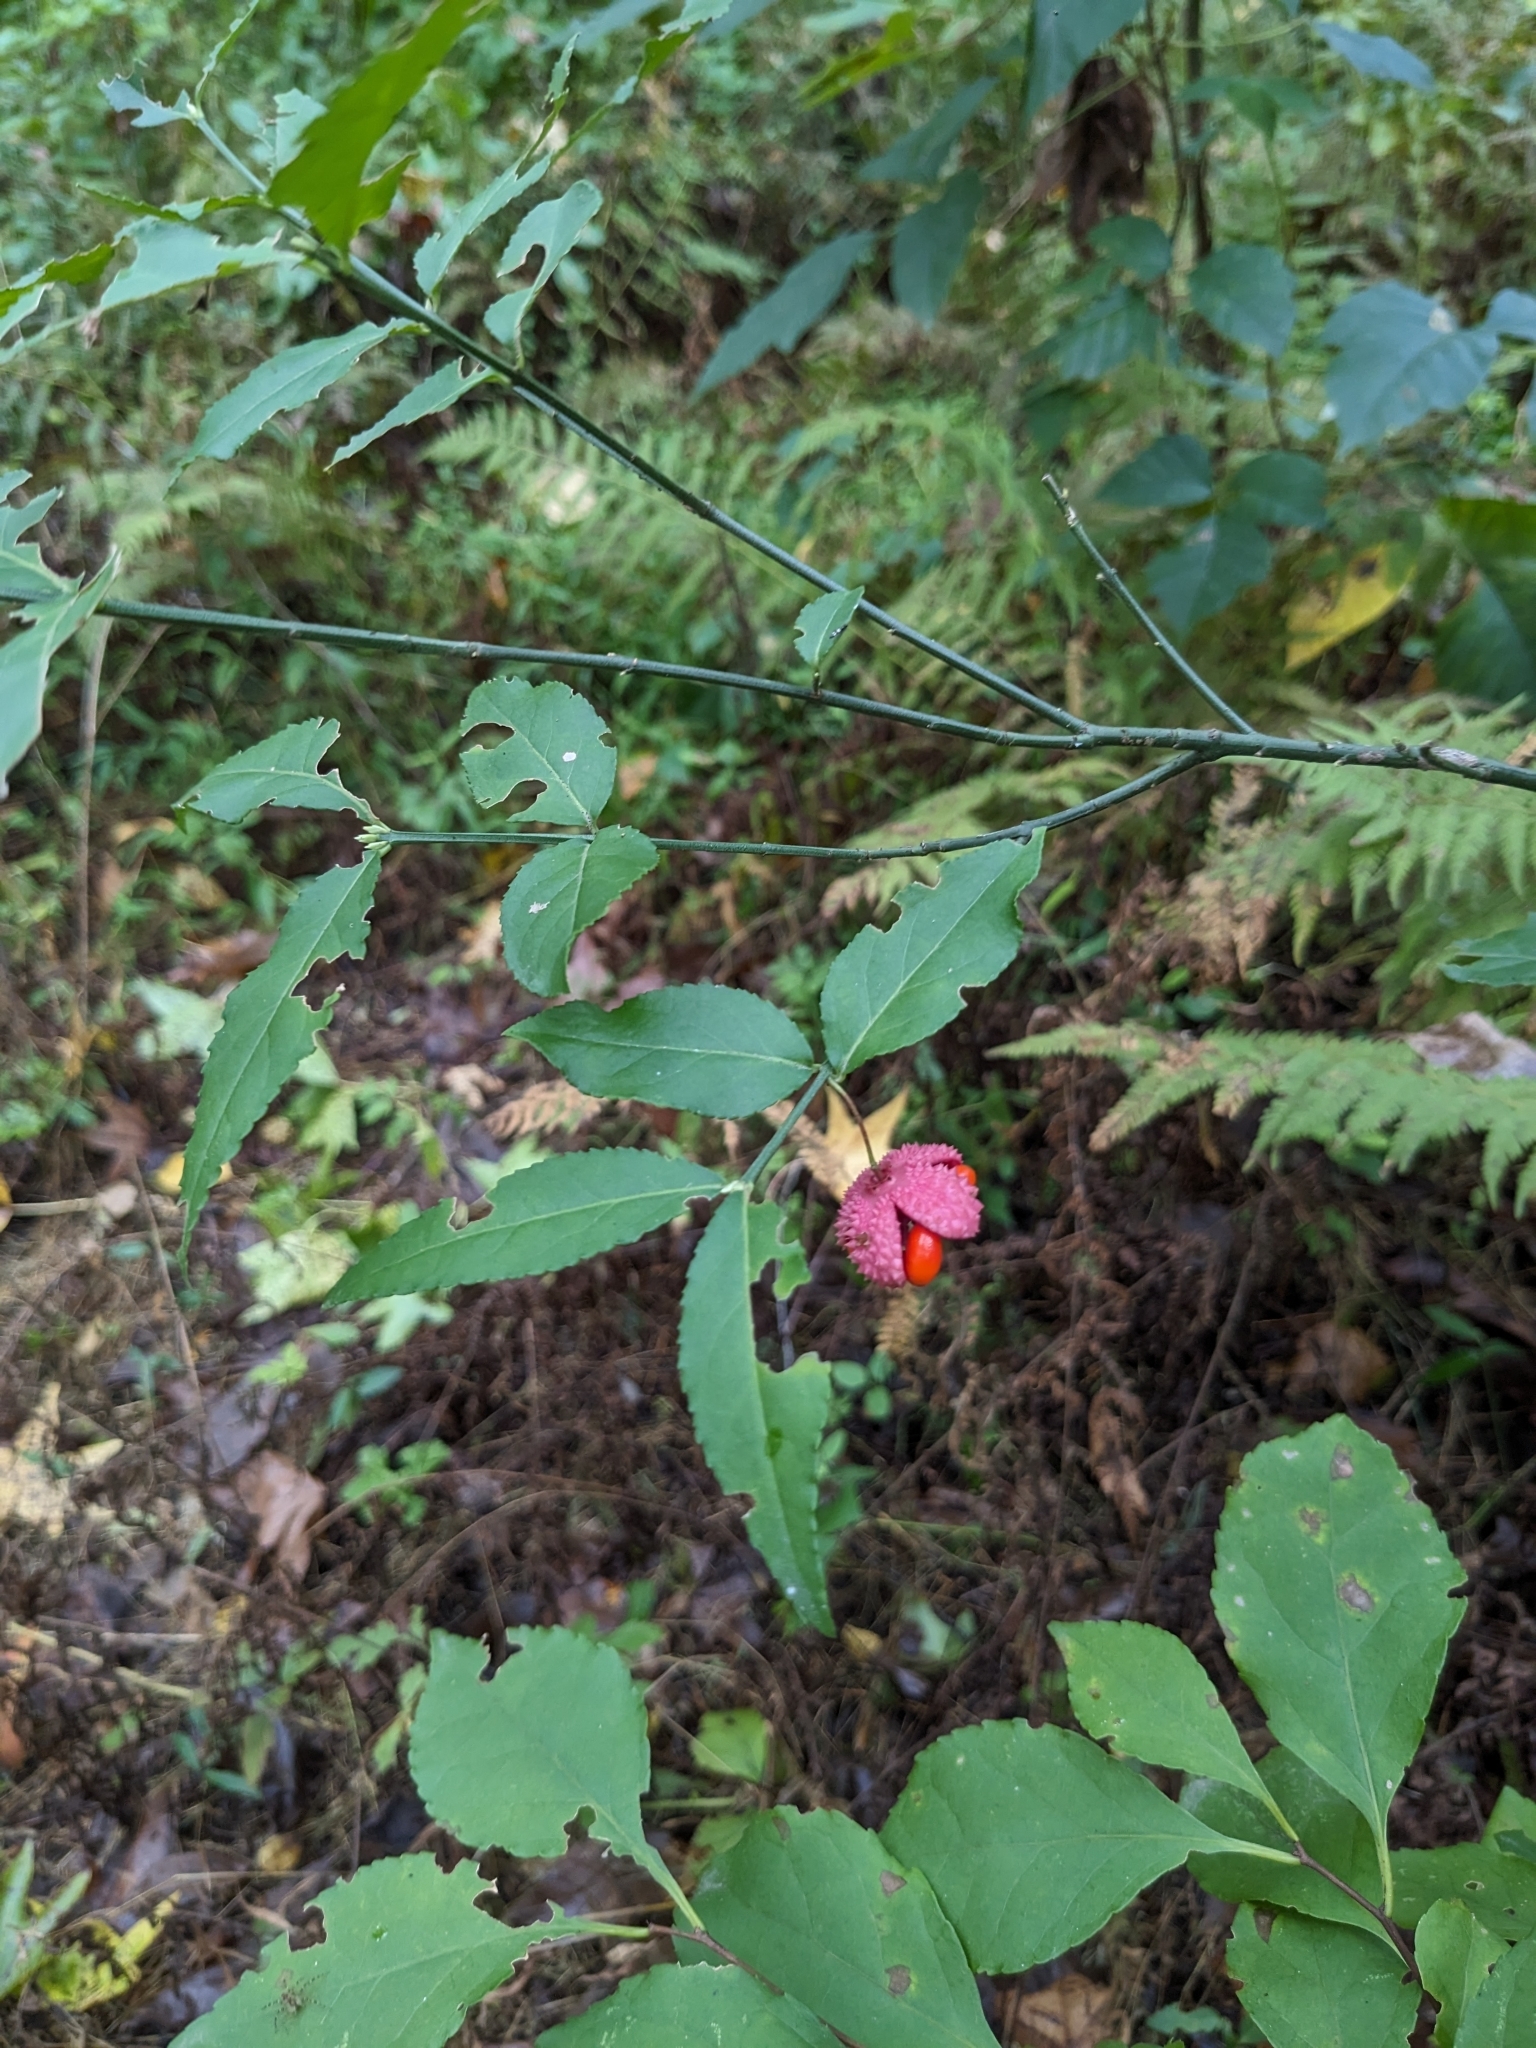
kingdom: Plantae
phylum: Tracheophyta
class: Magnoliopsida
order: Celastrales
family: Celastraceae
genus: Euonymus
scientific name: Euonymus americanus
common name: Bursting-heart
